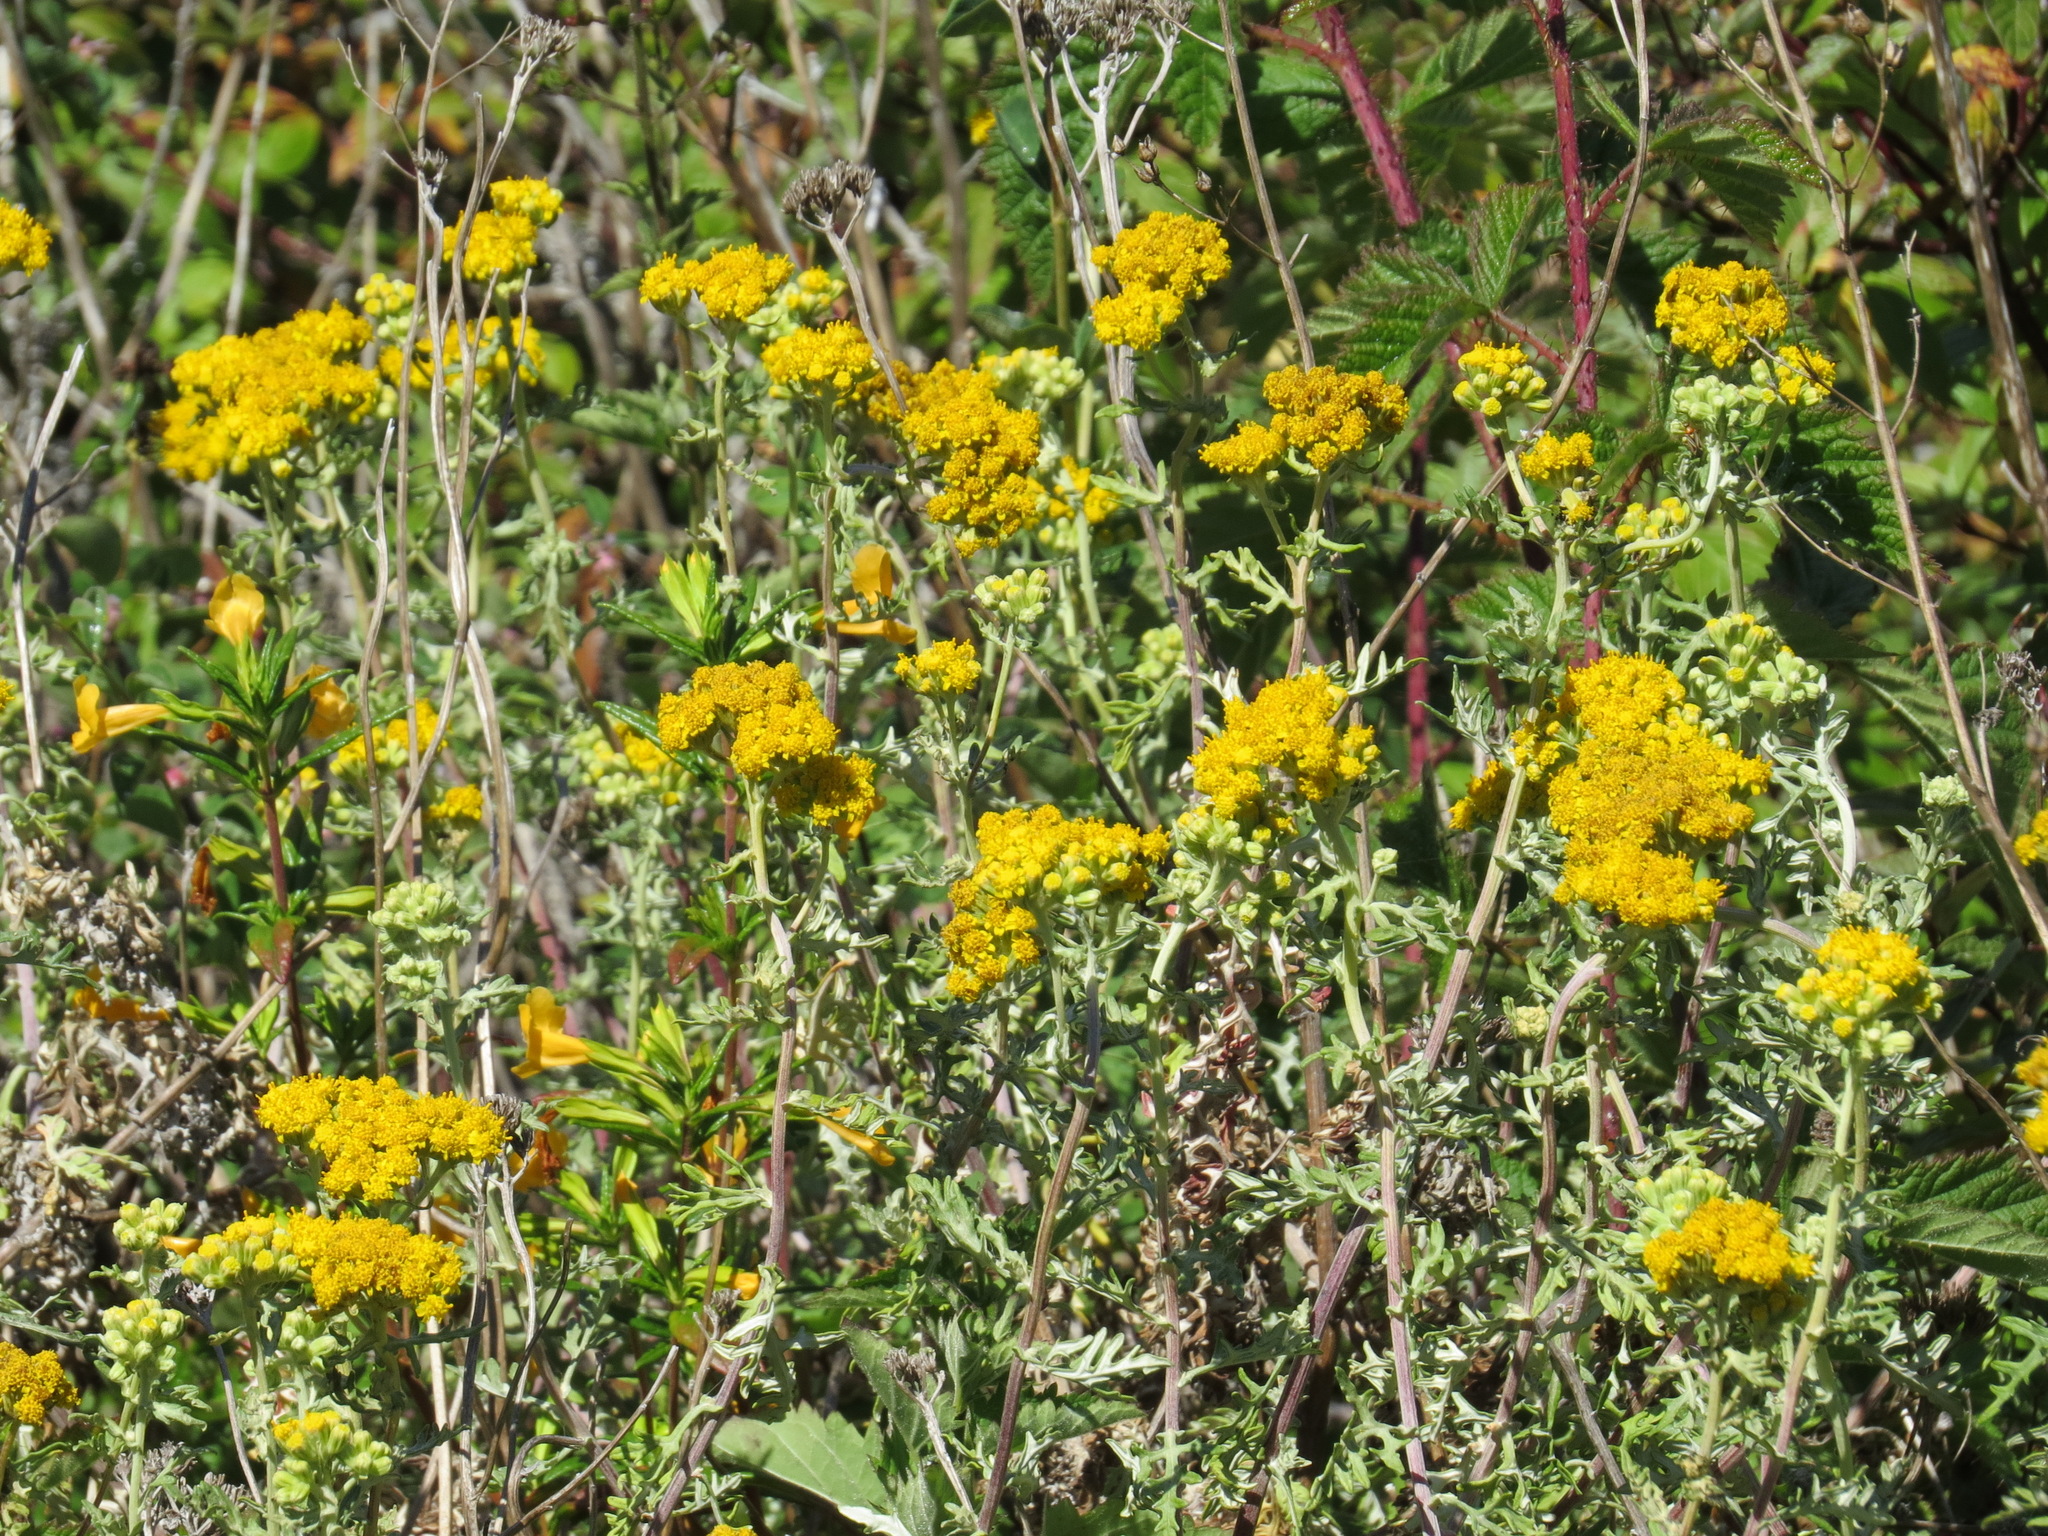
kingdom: Plantae
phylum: Tracheophyta
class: Magnoliopsida
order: Asterales
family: Asteraceae
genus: Eriophyllum
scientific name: Eriophyllum staechadifolium
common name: Lizardtail
